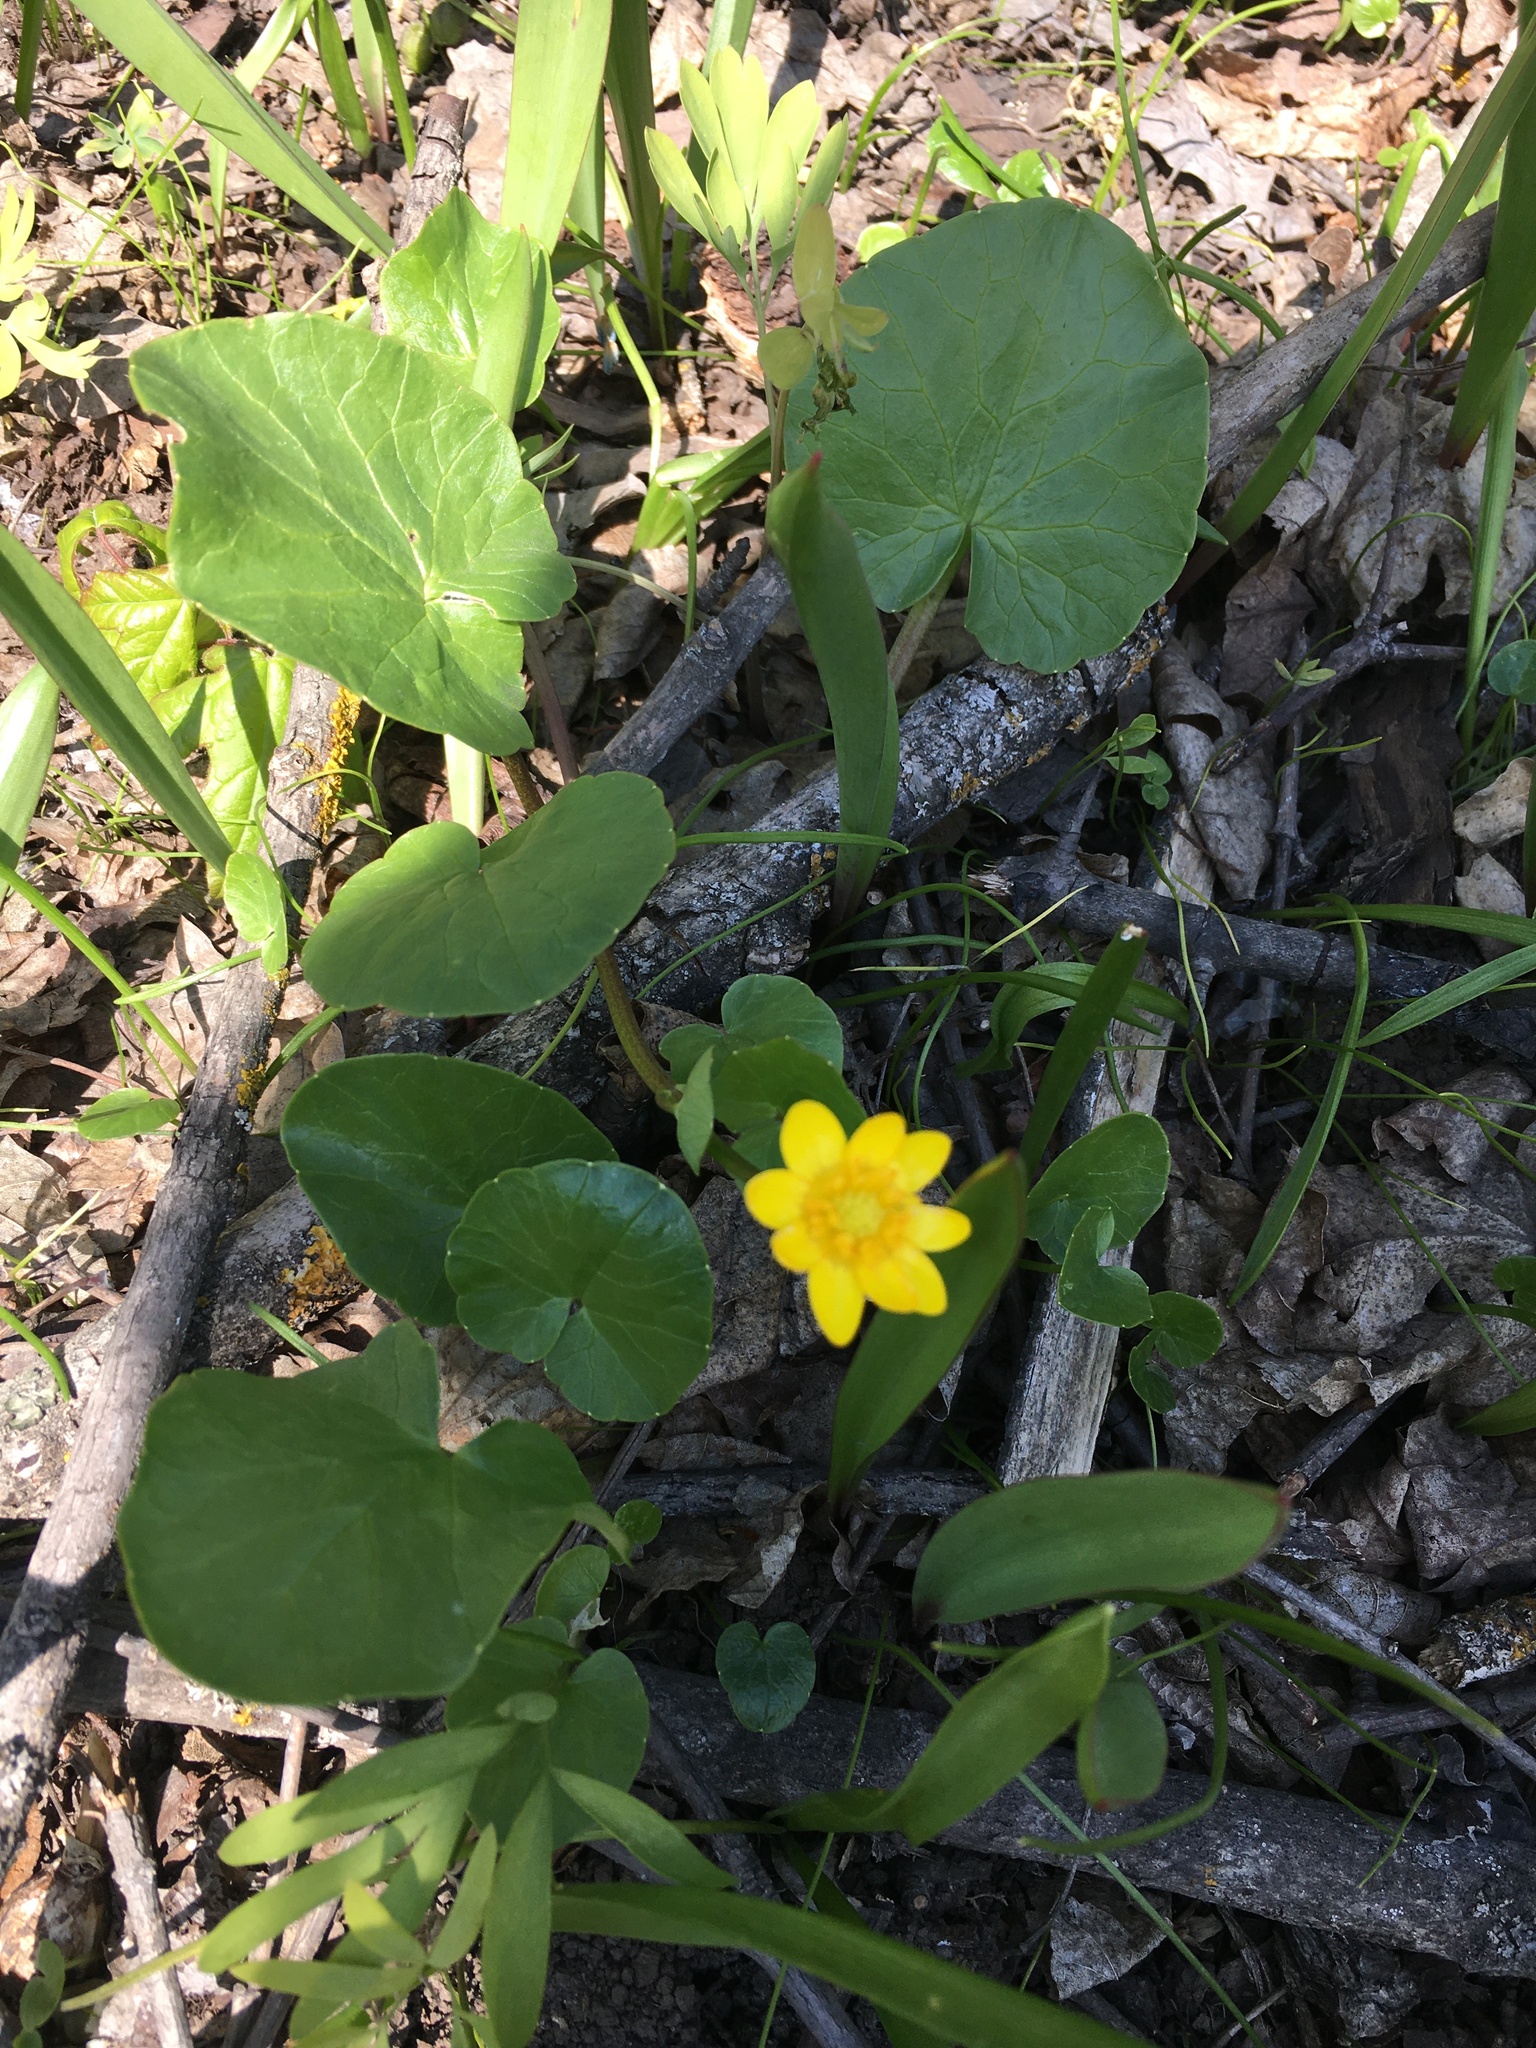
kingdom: Plantae
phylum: Tracheophyta
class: Magnoliopsida
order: Ranunculales
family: Ranunculaceae
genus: Ficaria
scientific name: Ficaria verna
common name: Lesser celandine
